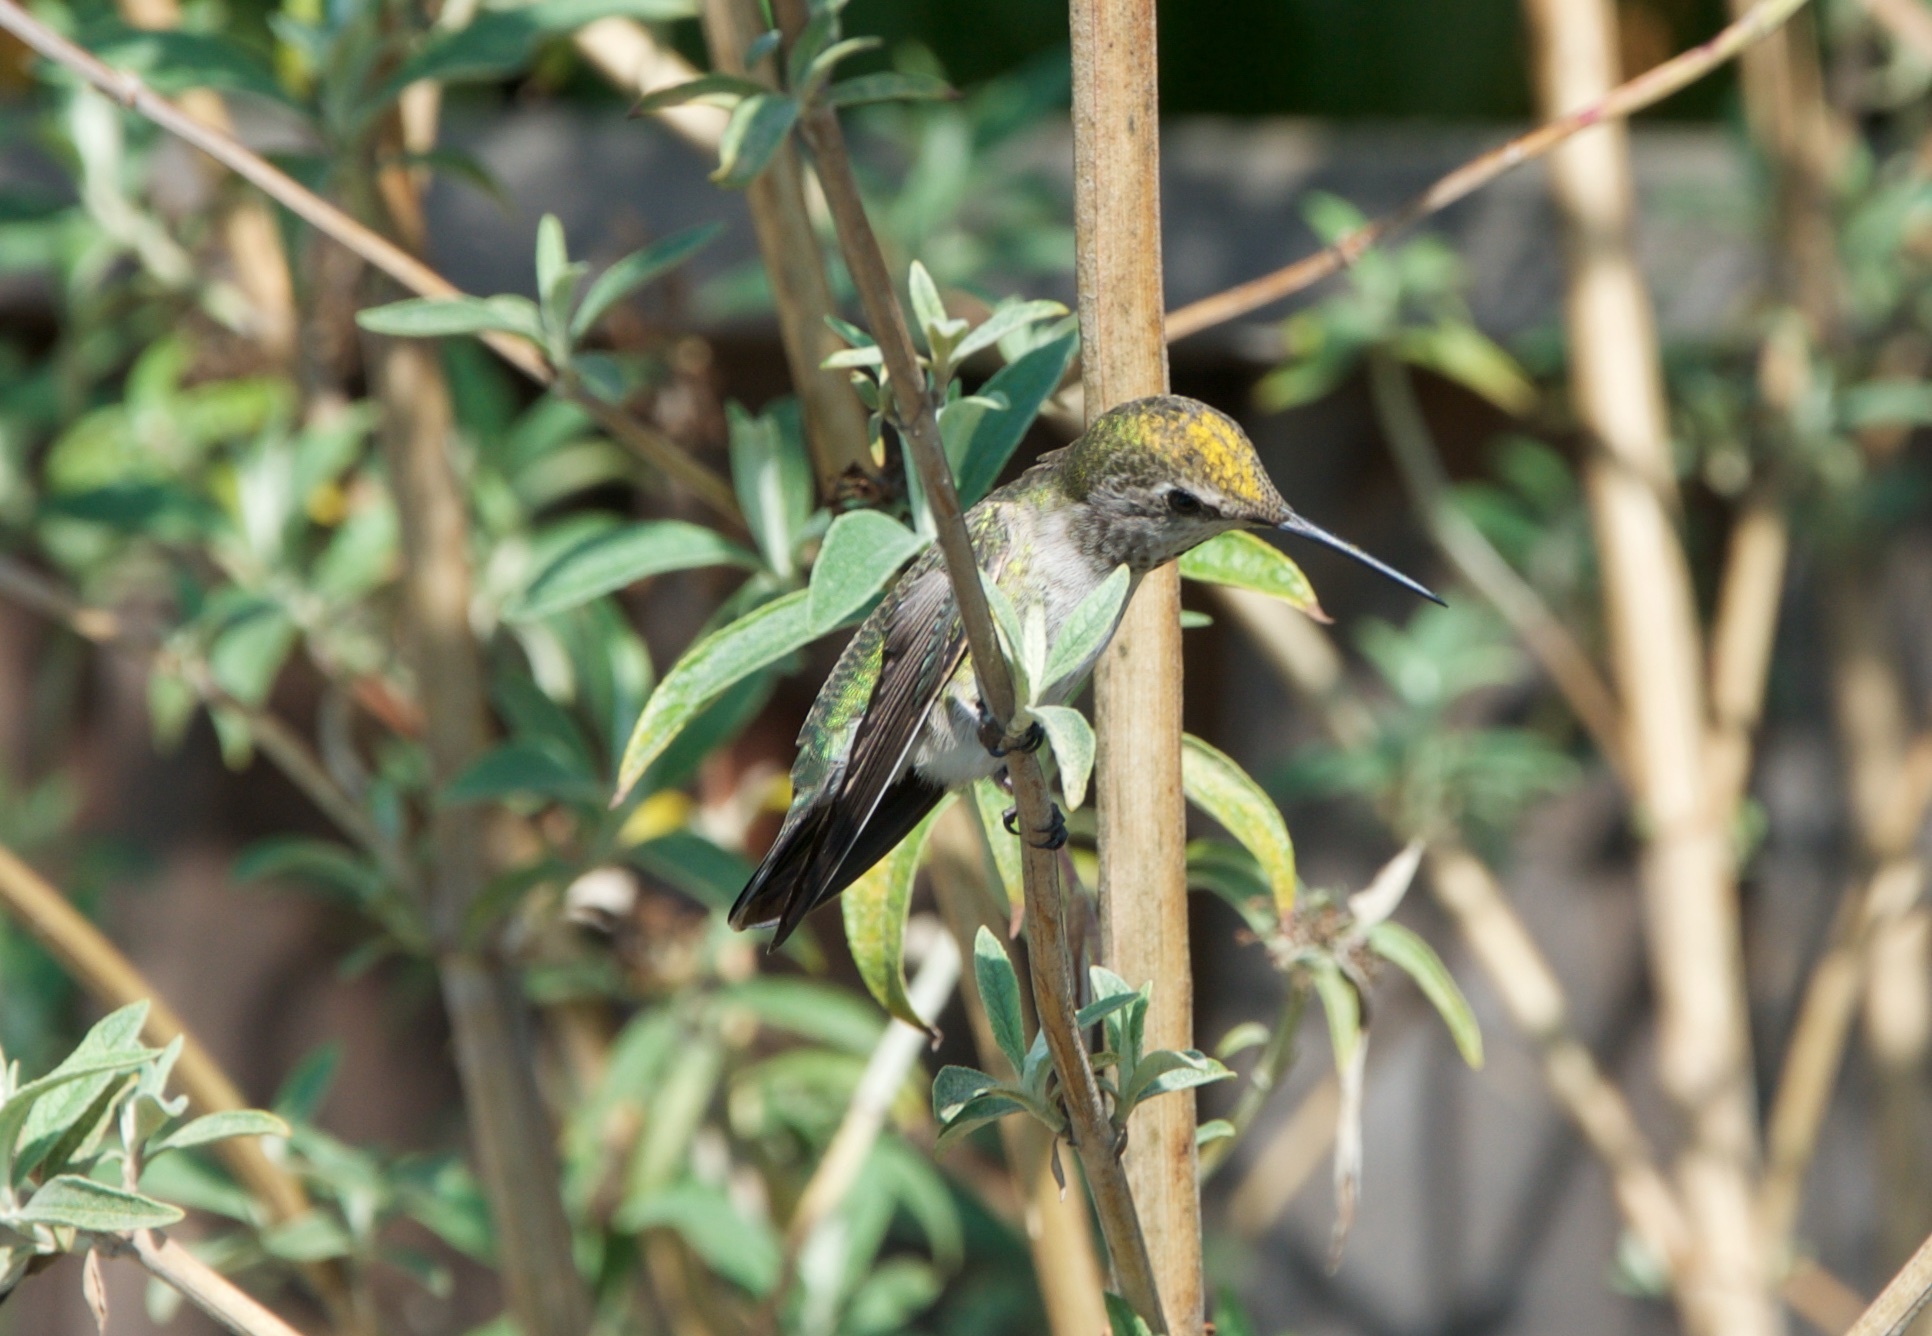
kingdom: Animalia
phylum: Chordata
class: Aves
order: Apodiformes
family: Trochilidae
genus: Calypte
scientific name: Calypte anna
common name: Anna's hummingbird
